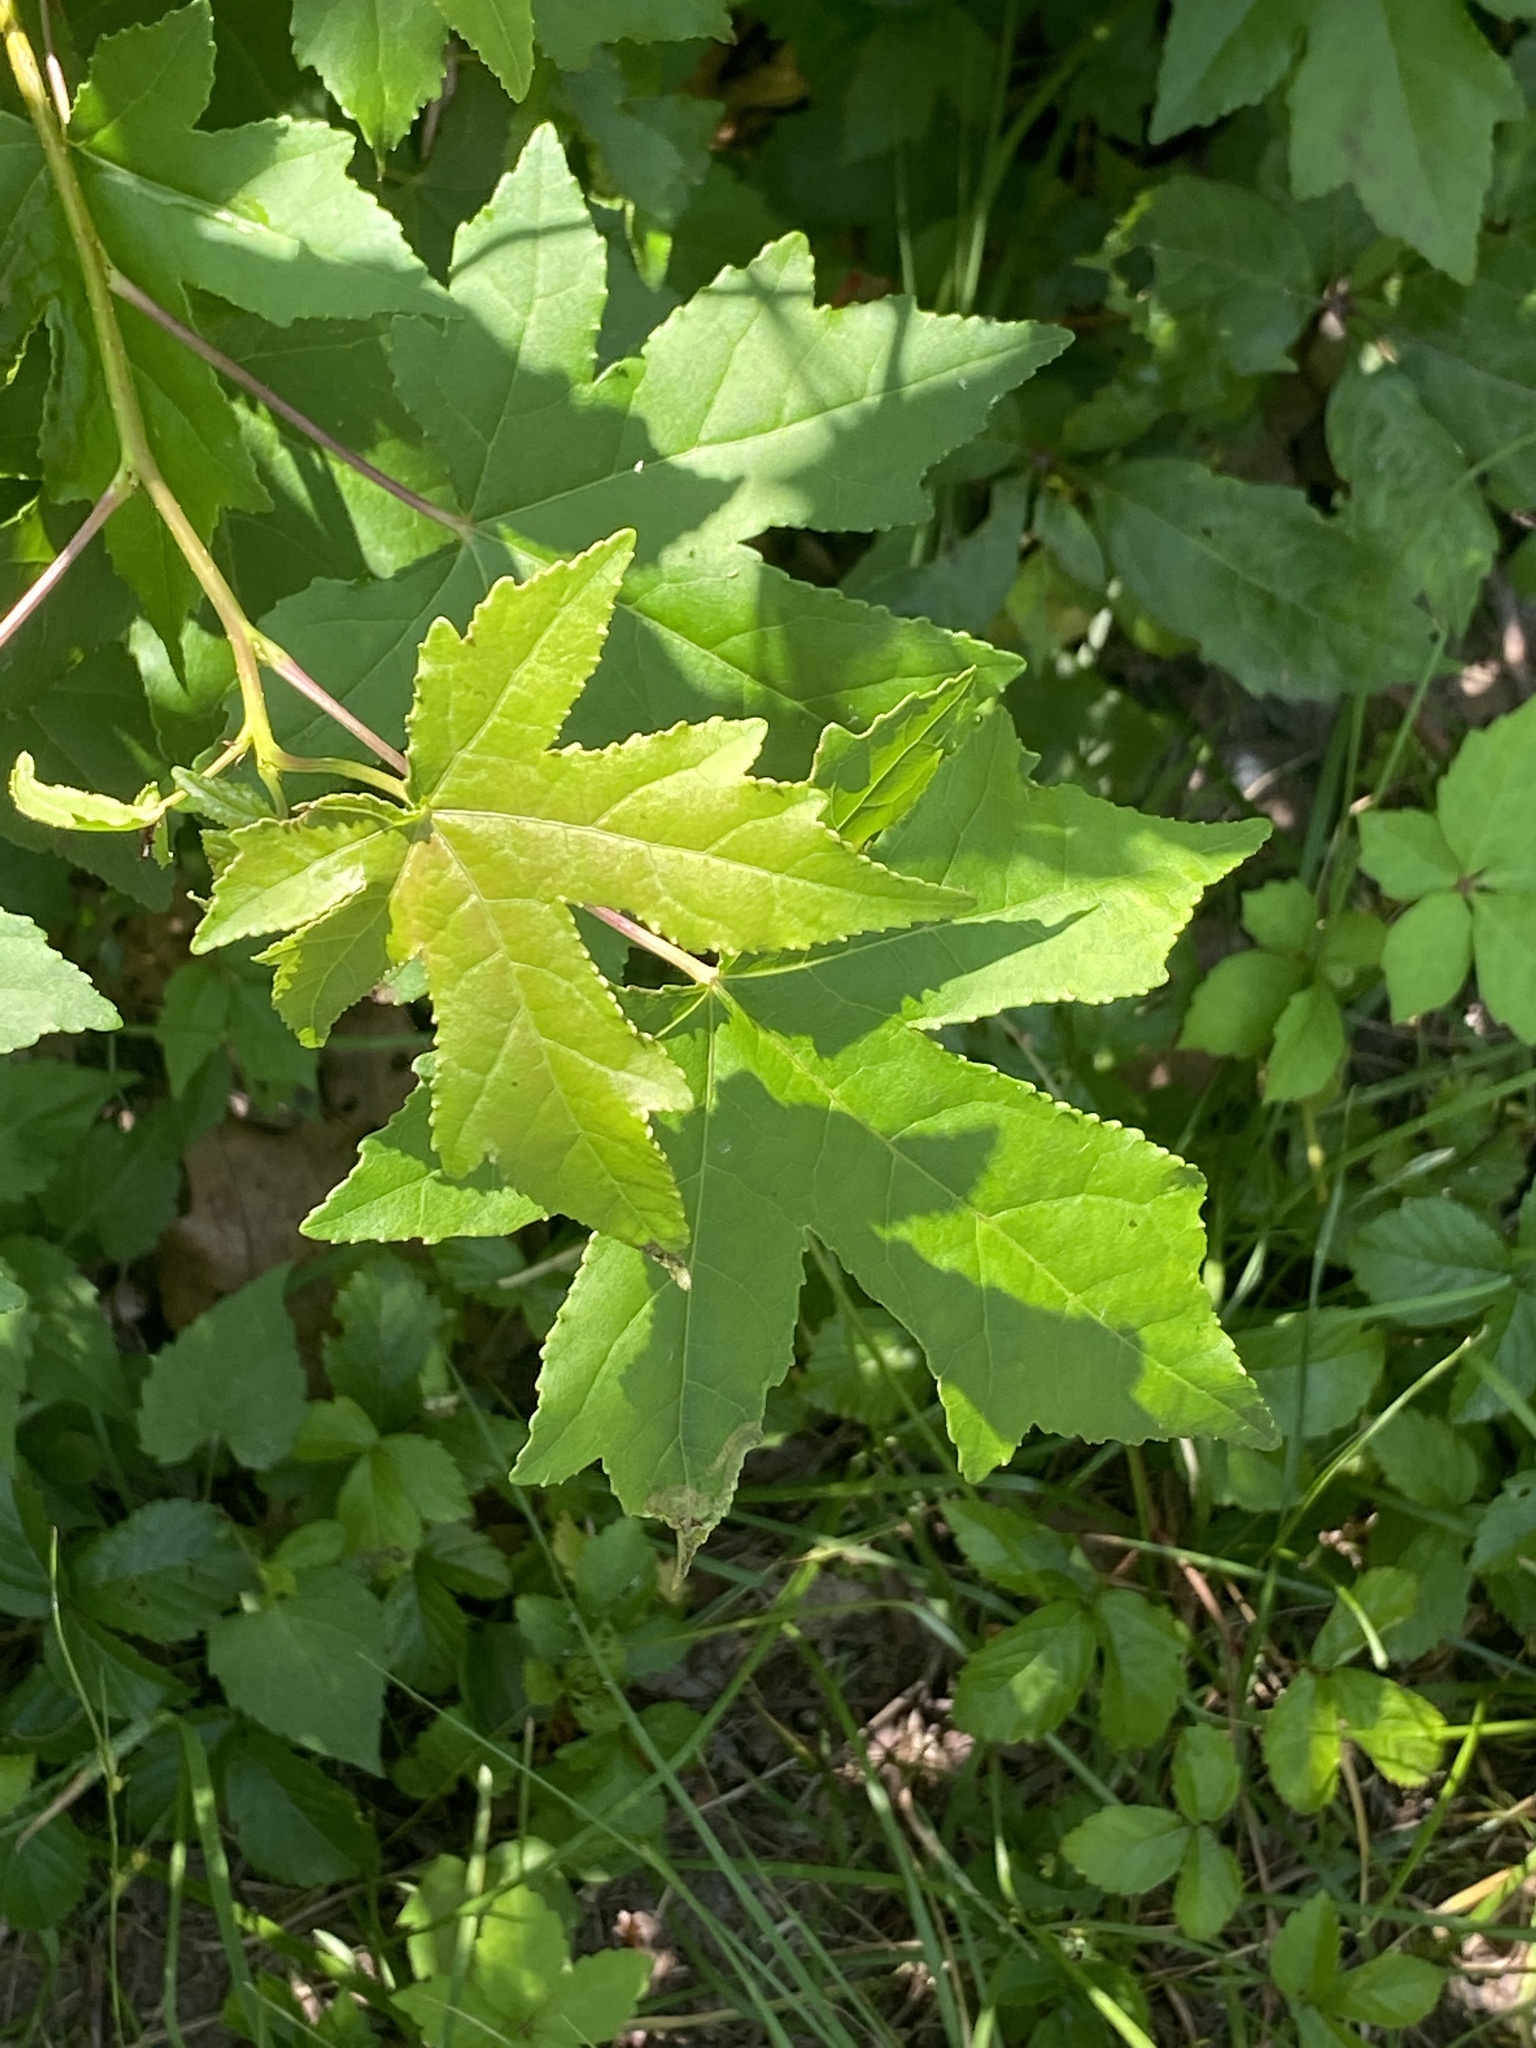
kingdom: Plantae
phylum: Tracheophyta
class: Magnoliopsida
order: Saxifragales
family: Altingiaceae
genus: Liquidambar
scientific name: Liquidambar styraciflua
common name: Sweet gum
